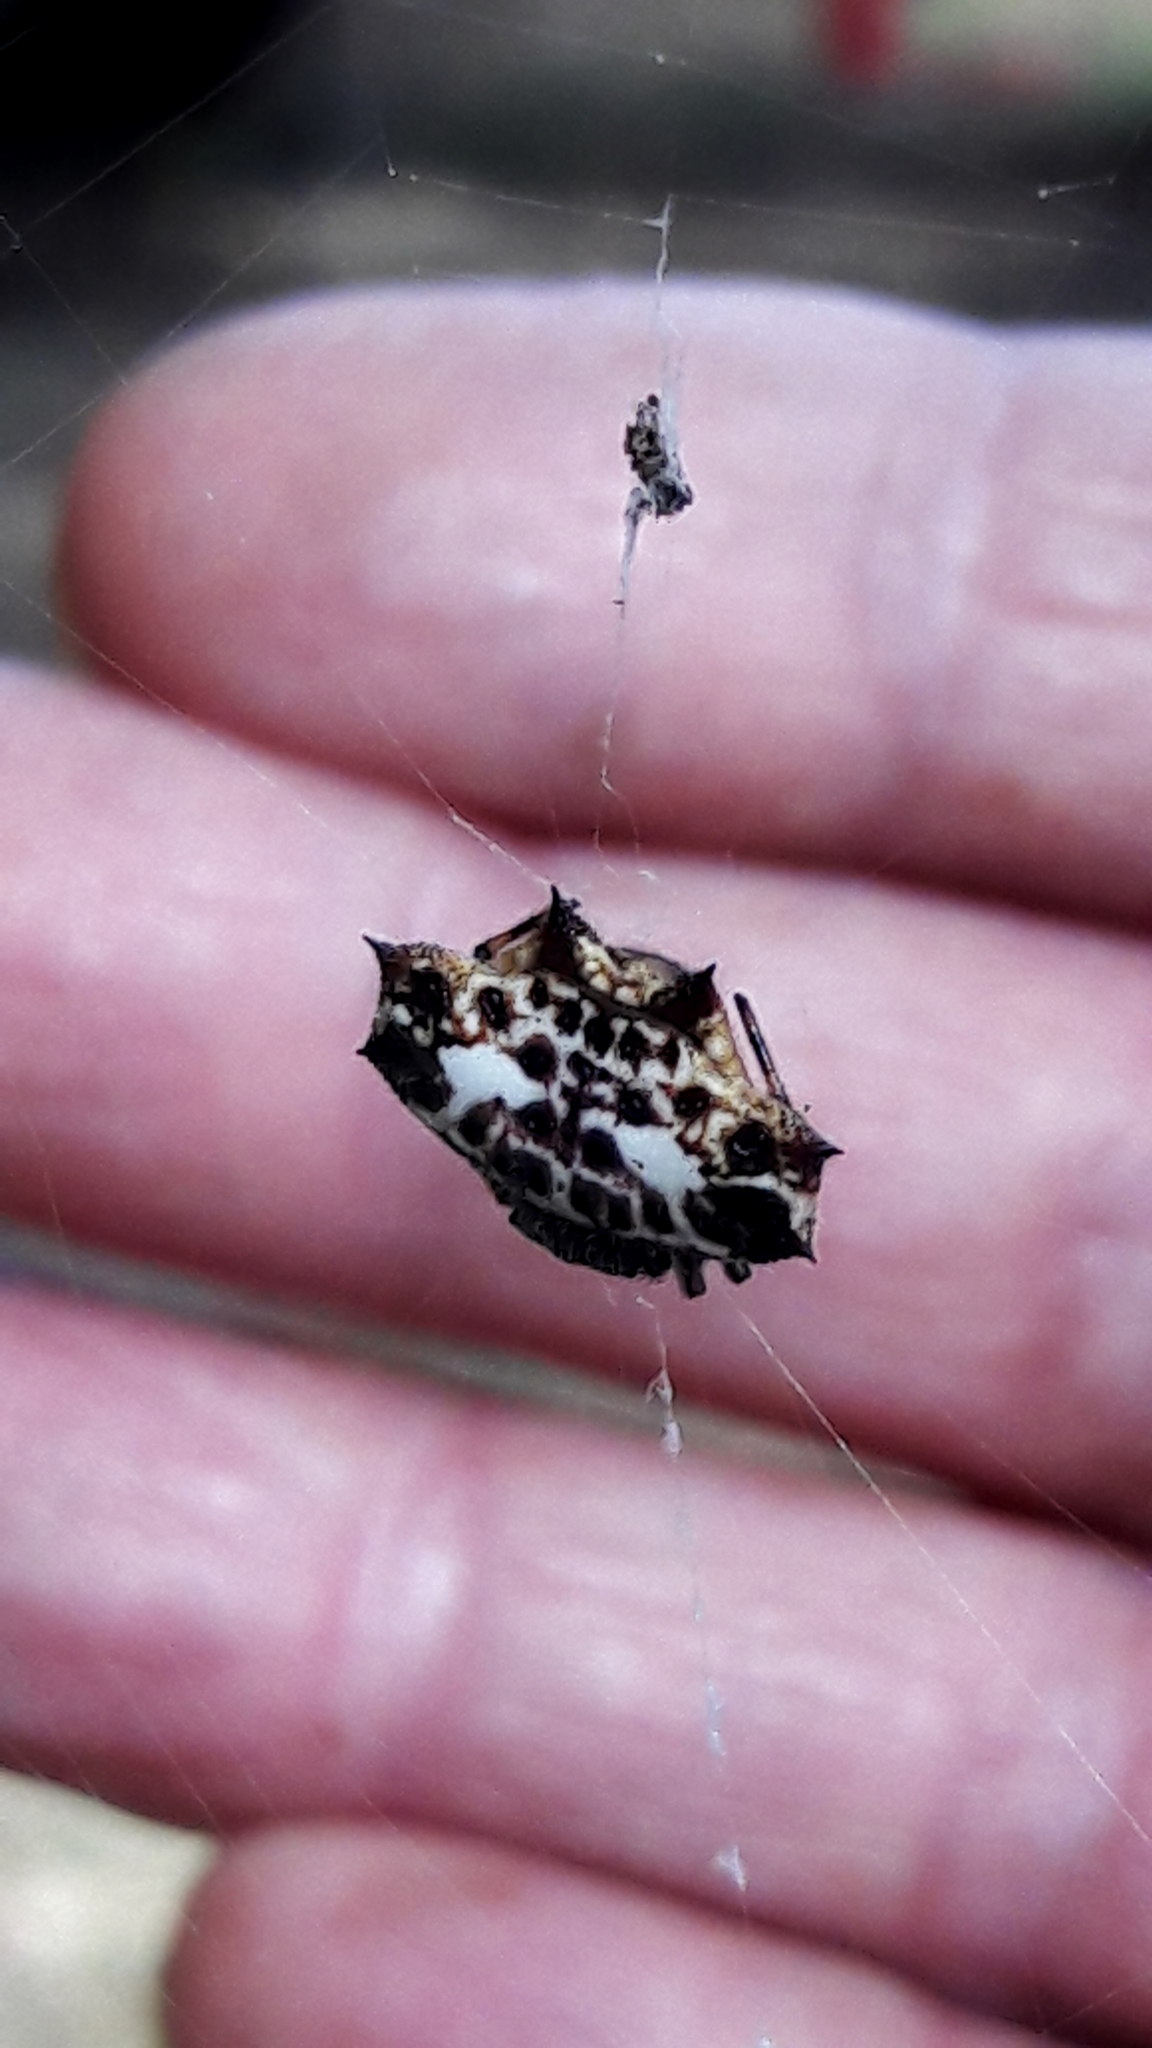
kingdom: Animalia
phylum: Arthropoda
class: Arachnida
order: Araneae
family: Araneidae
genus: Gasteracantha
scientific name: Gasteracantha cancriformis
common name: Orb weavers
